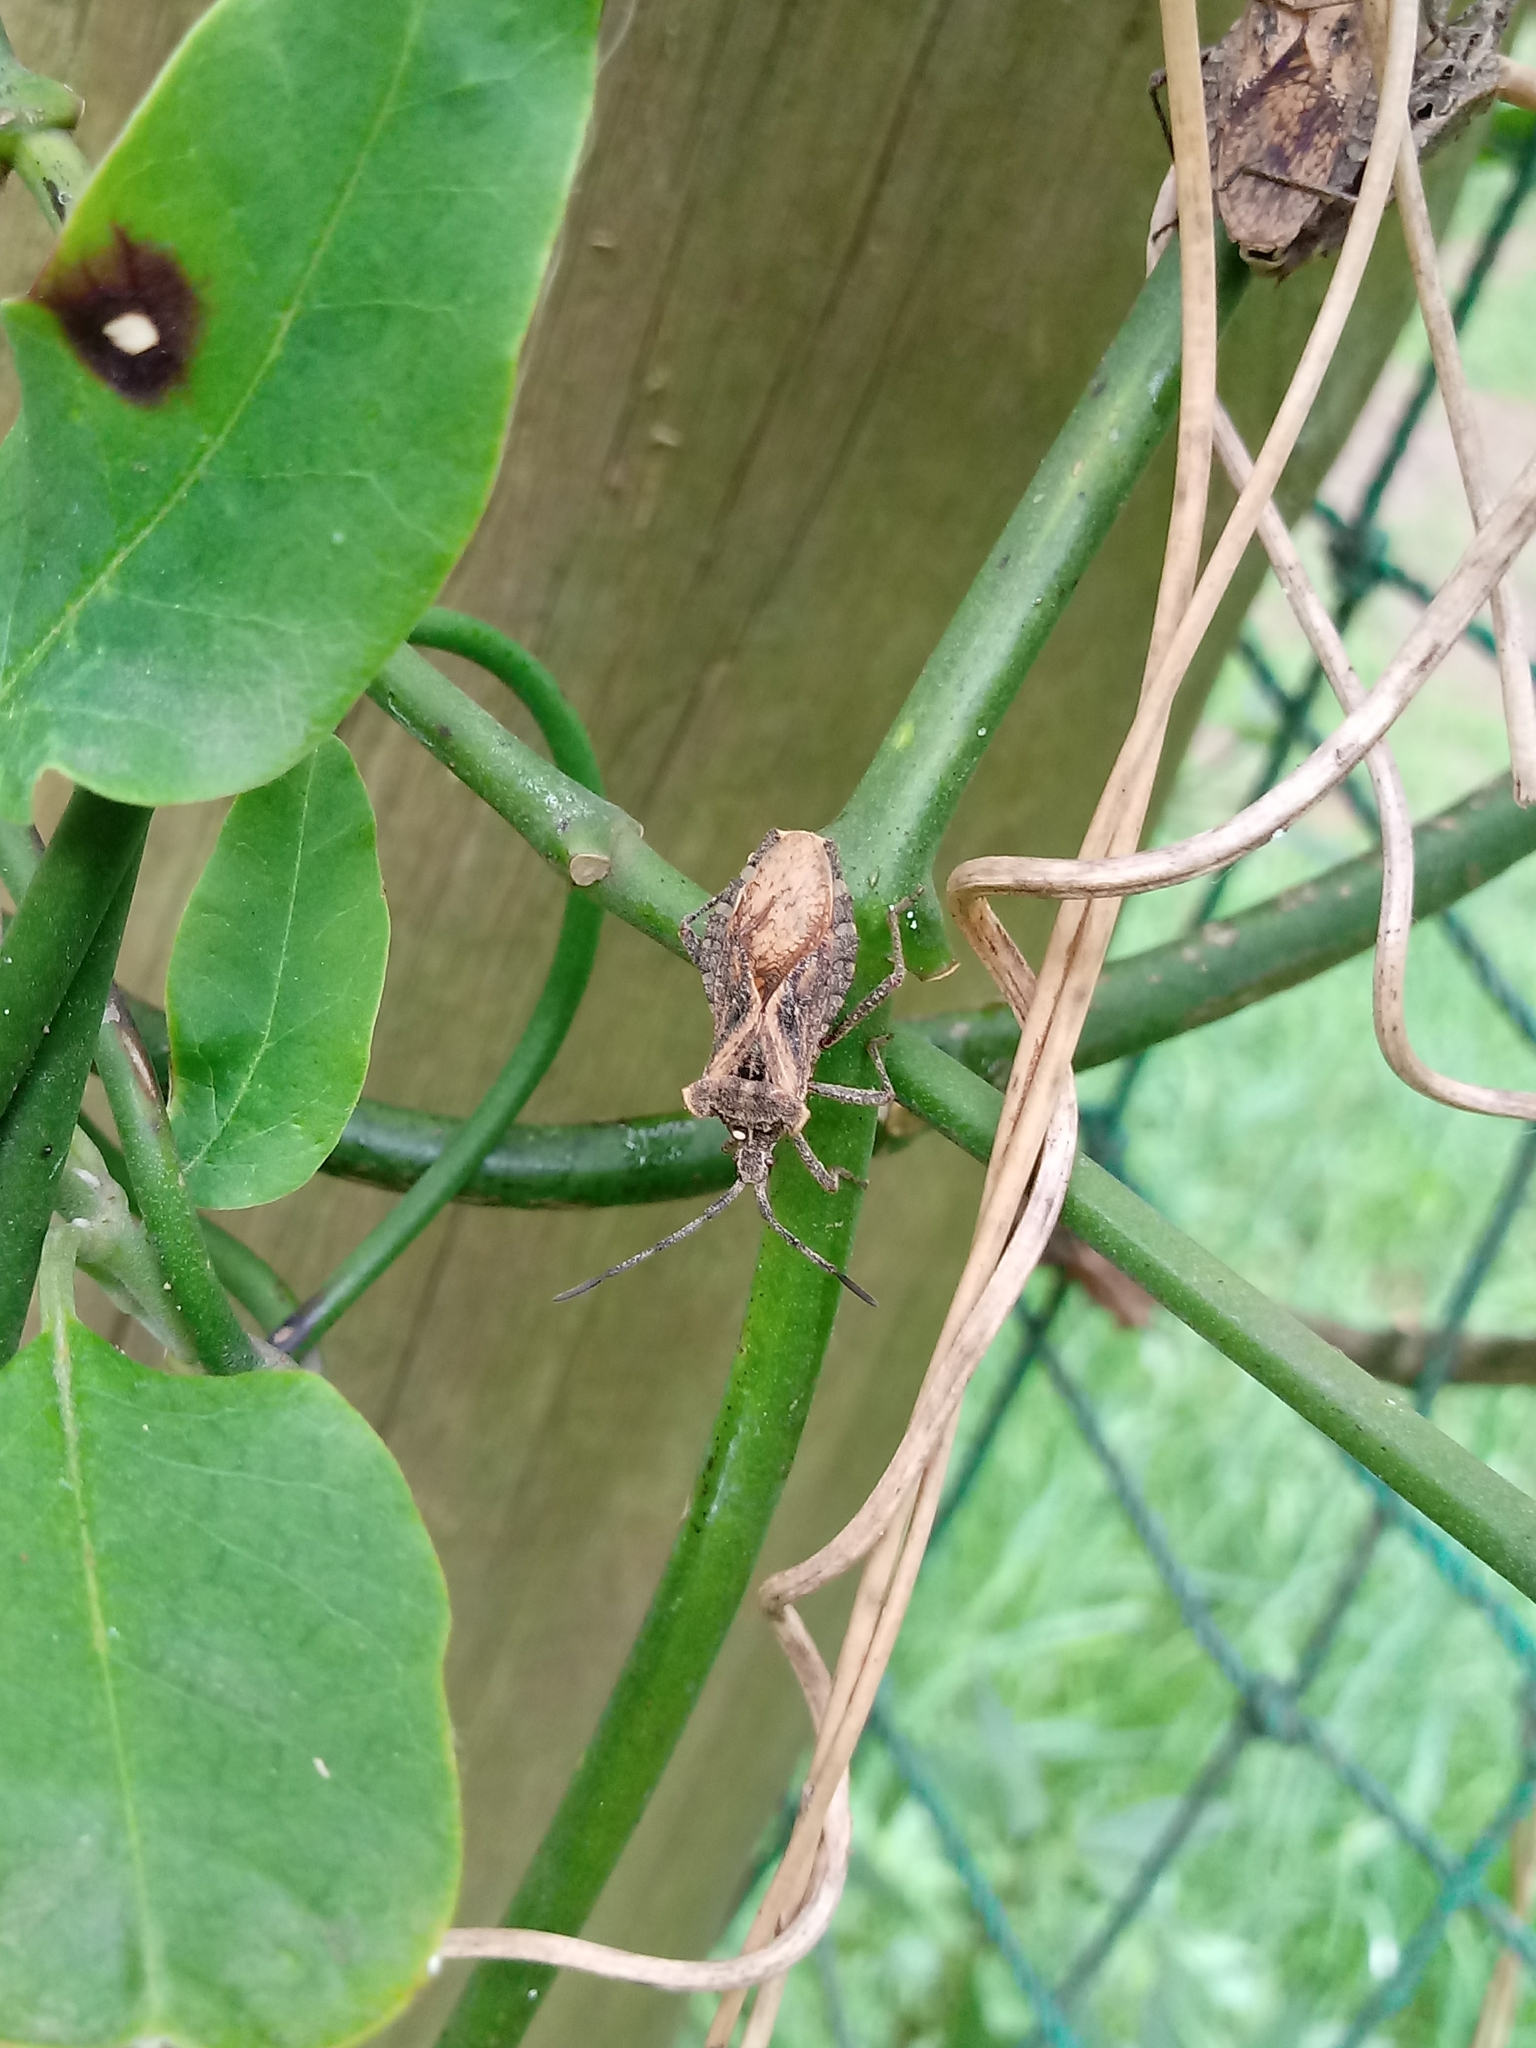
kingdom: Animalia
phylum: Arthropoda
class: Insecta
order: Hemiptera
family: Coreidae
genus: Eubule
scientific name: Eubule sculpta
